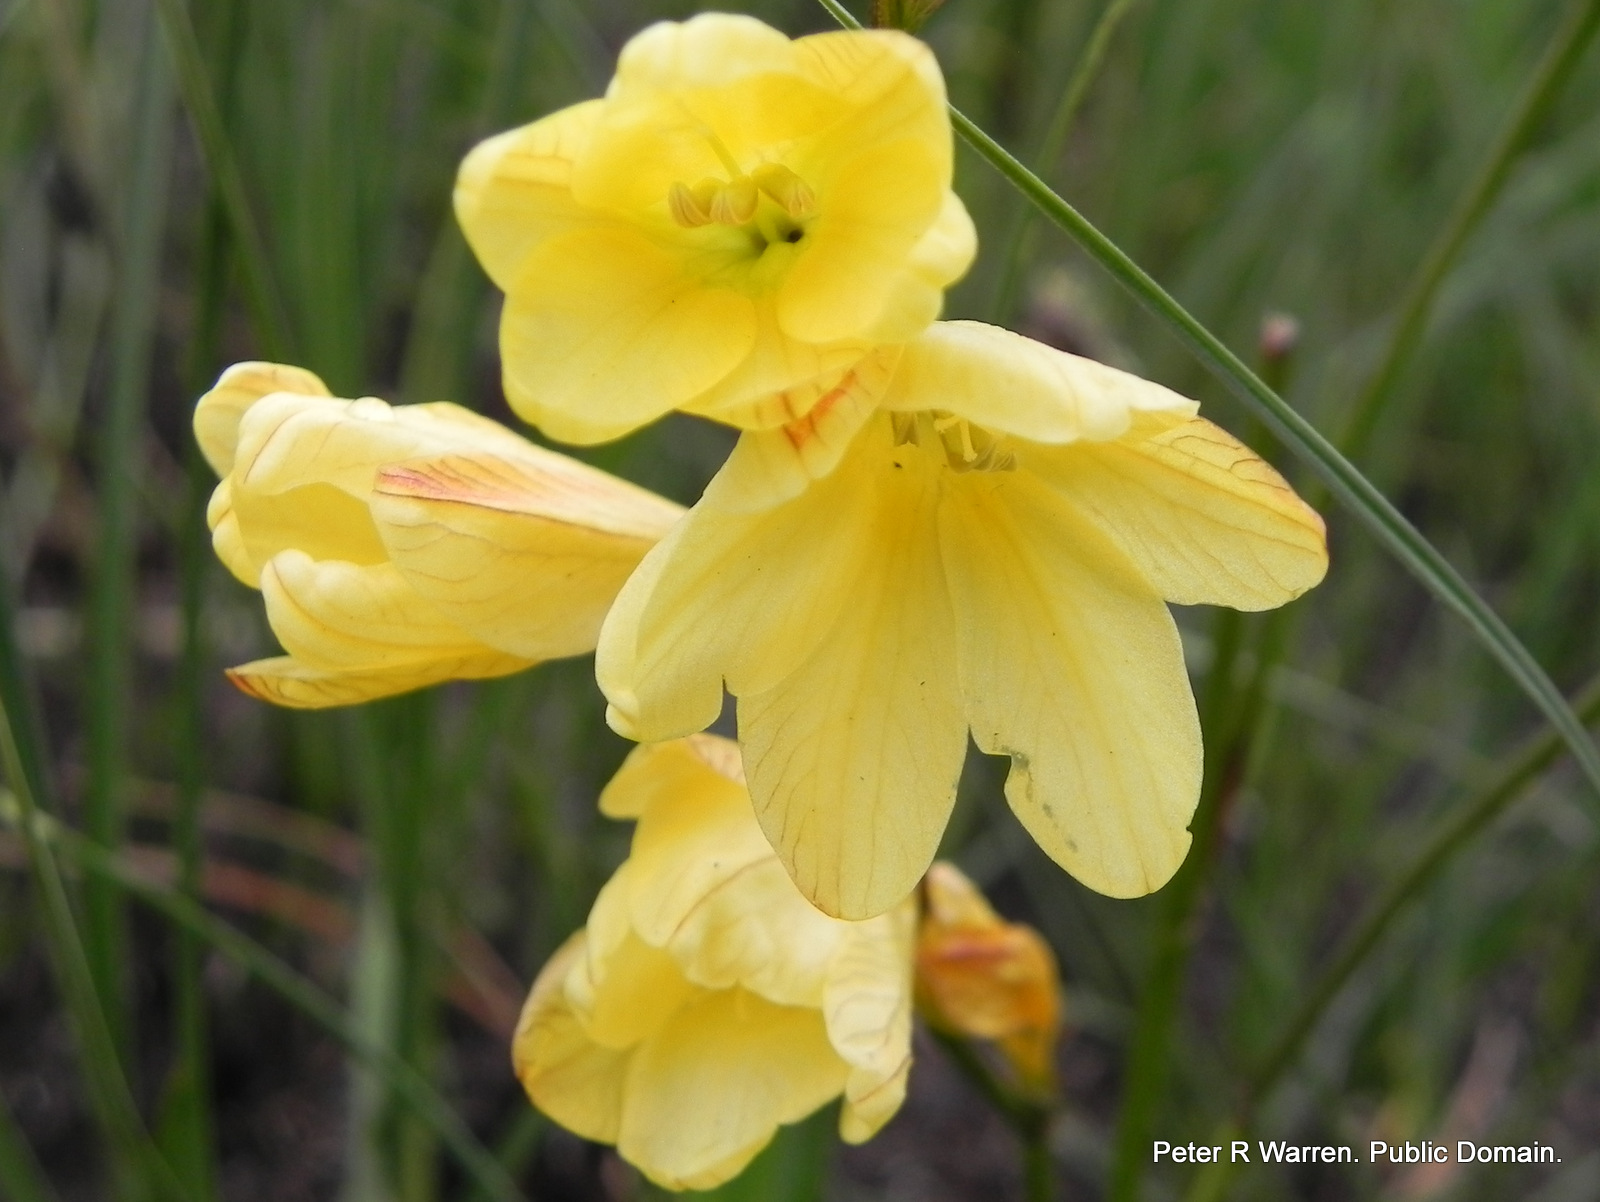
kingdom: Plantae
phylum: Tracheophyta
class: Liliopsida
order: Asparagales
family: Iridaceae
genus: Tritonia
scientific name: Tritonia gladiolaris
